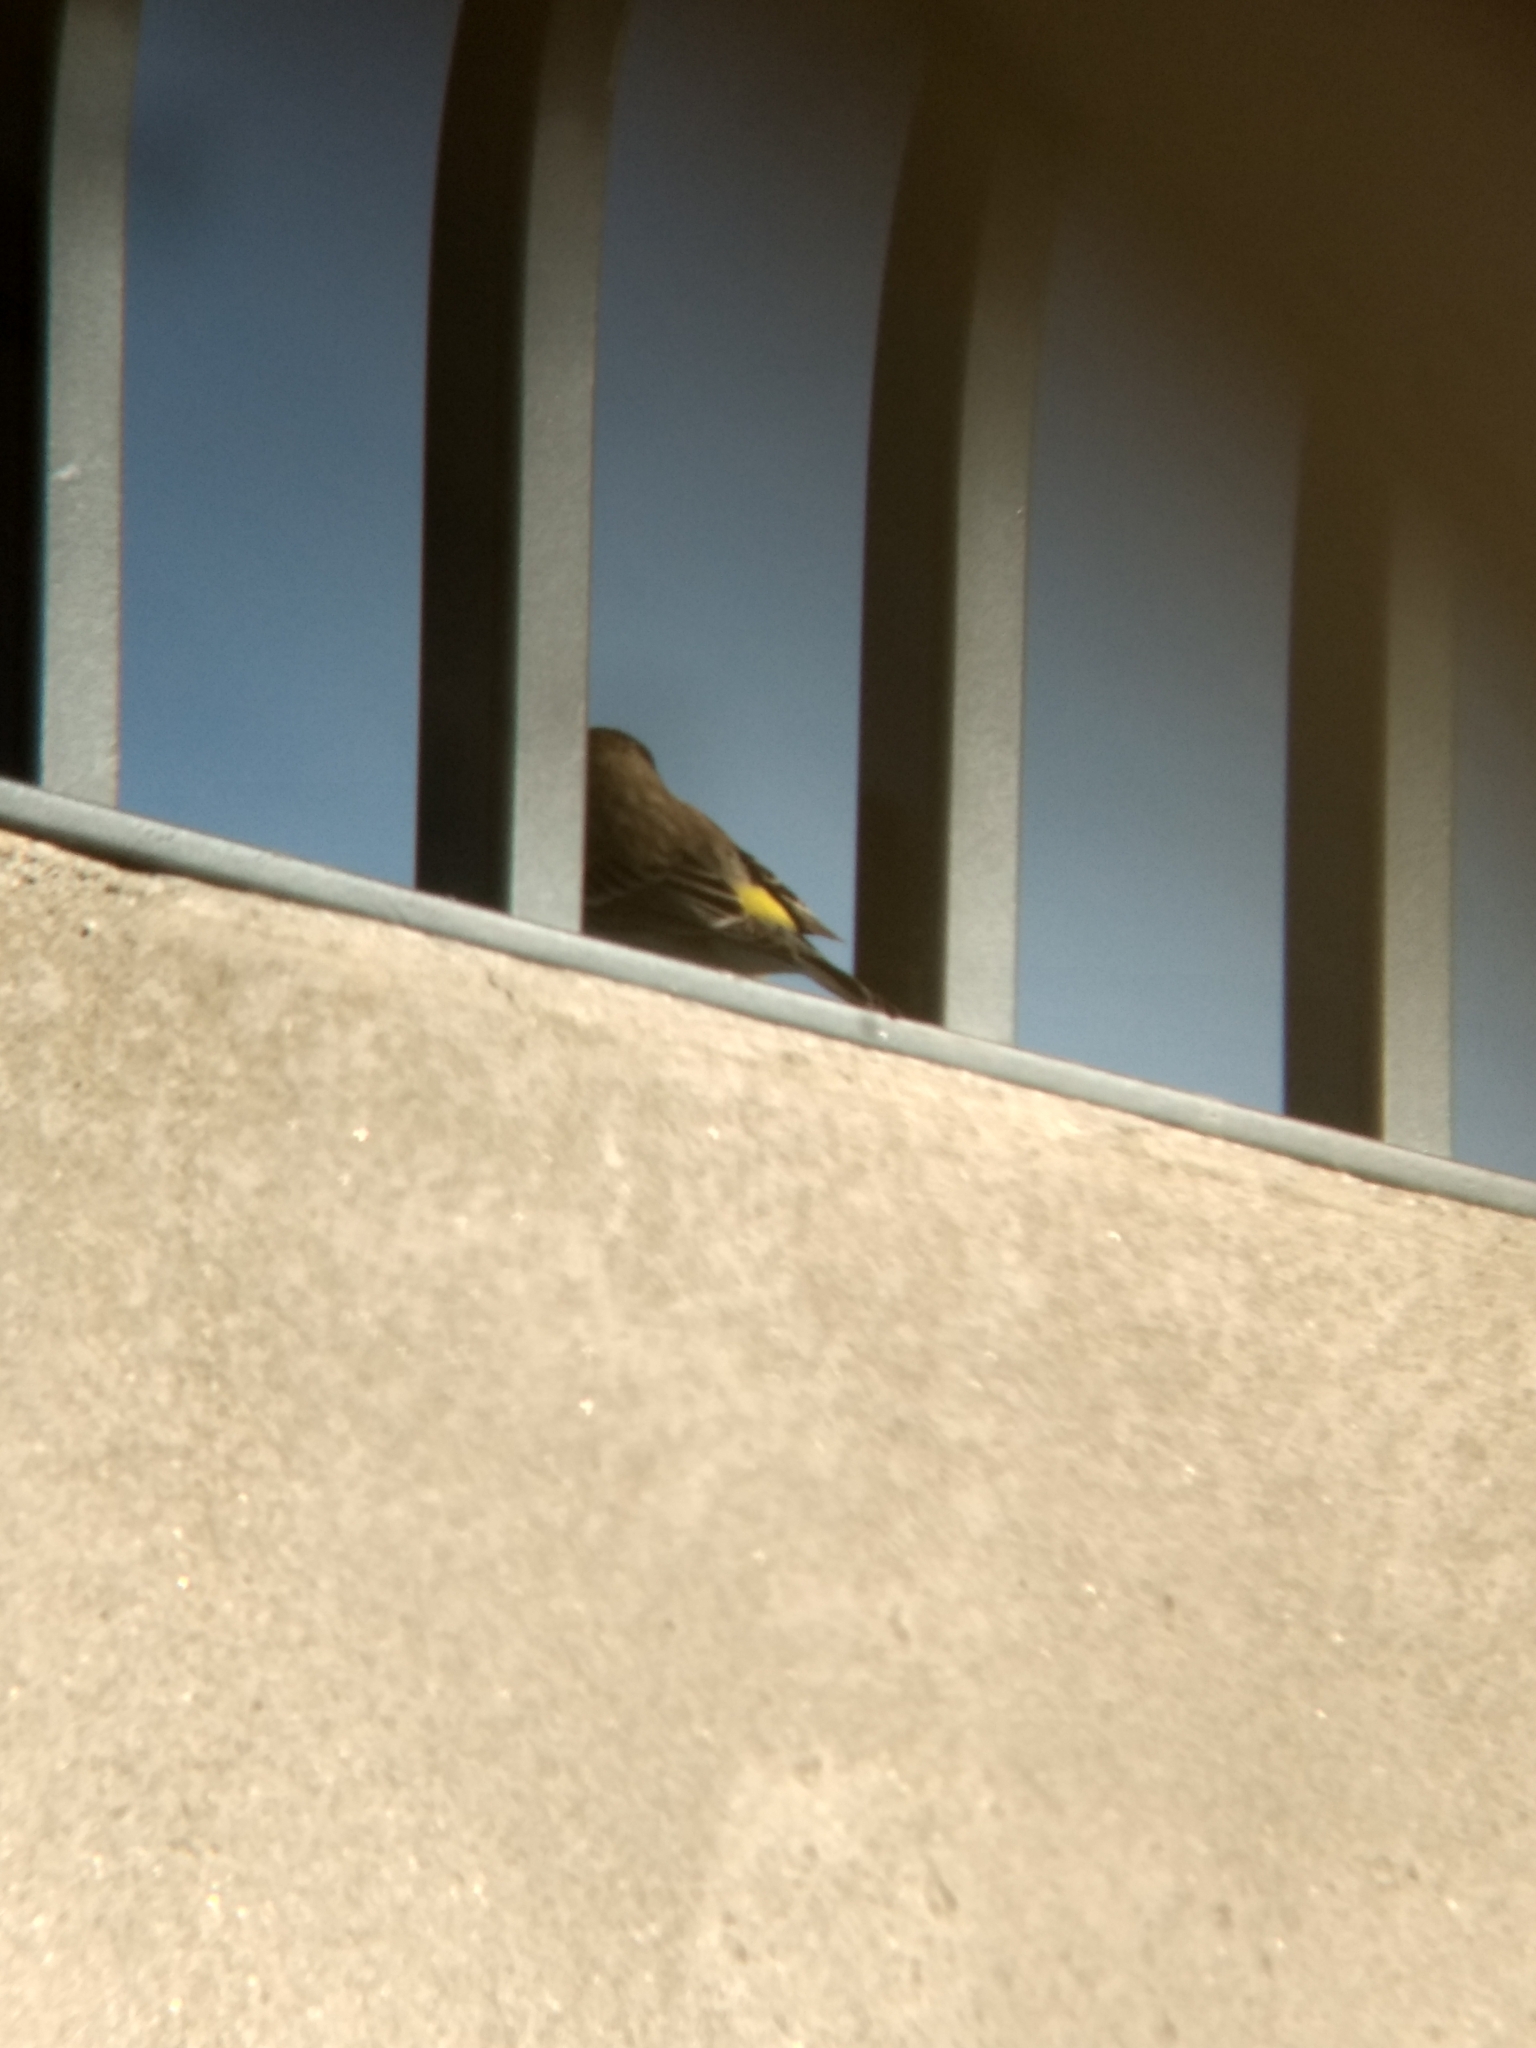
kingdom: Animalia
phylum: Chordata
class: Aves
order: Passeriformes
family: Parulidae
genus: Setophaga
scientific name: Setophaga coronata
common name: Myrtle warbler
